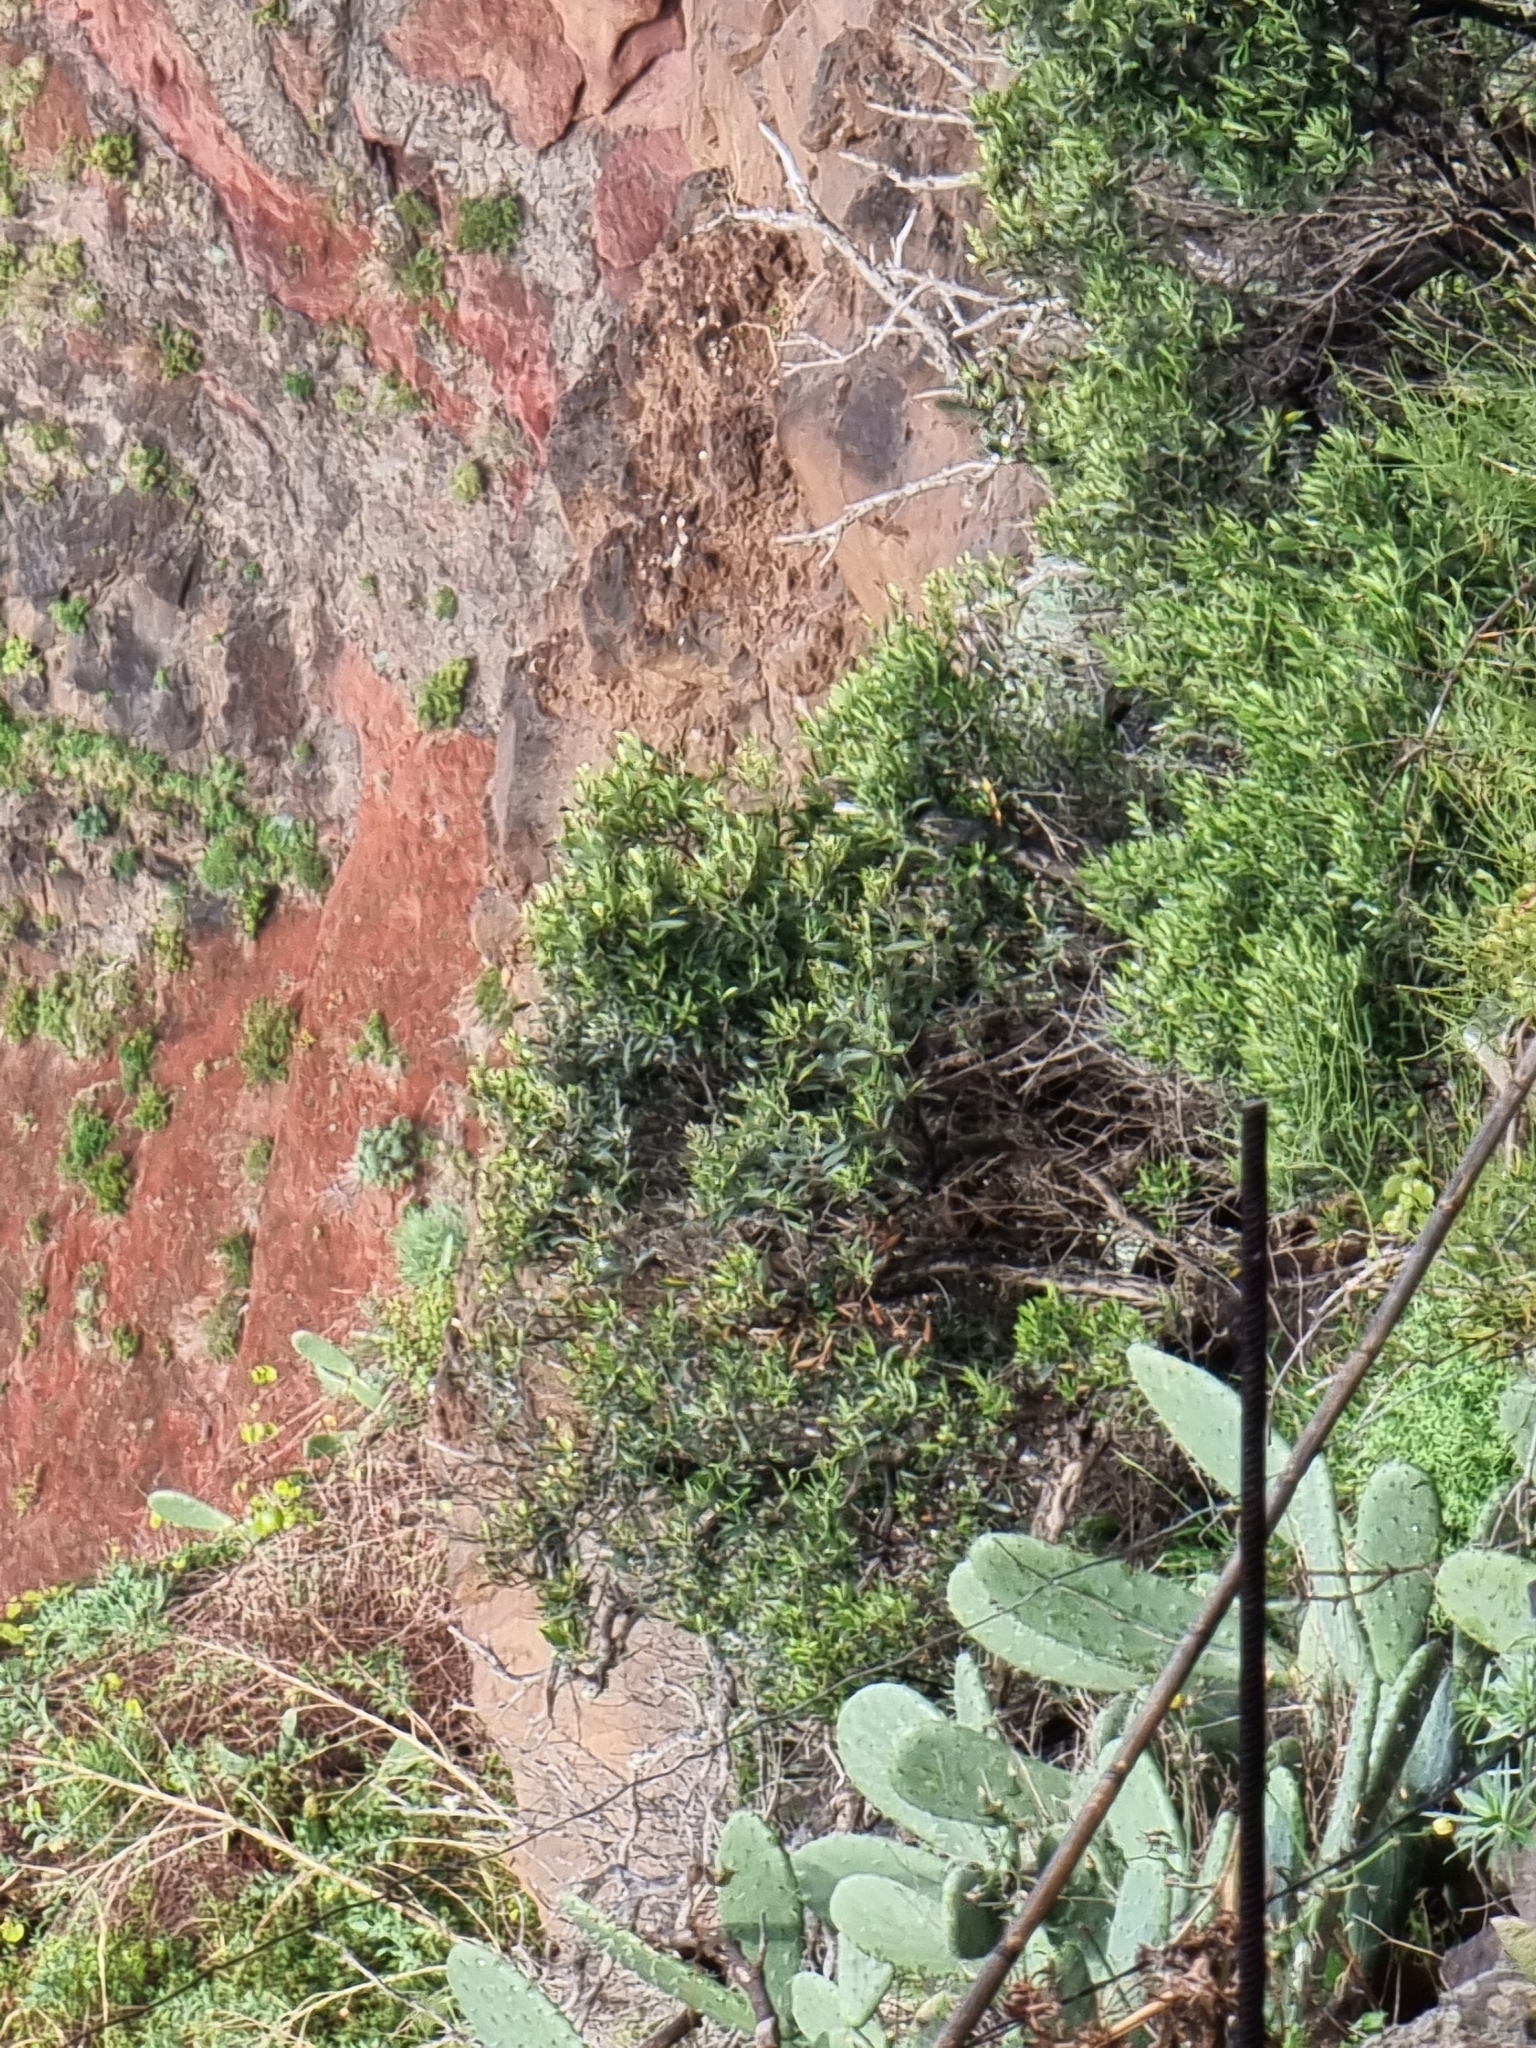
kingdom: Plantae
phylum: Tracheophyta
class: Magnoliopsida
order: Lamiales
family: Oleaceae
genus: Olea
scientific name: Olea europaea
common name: Olive
